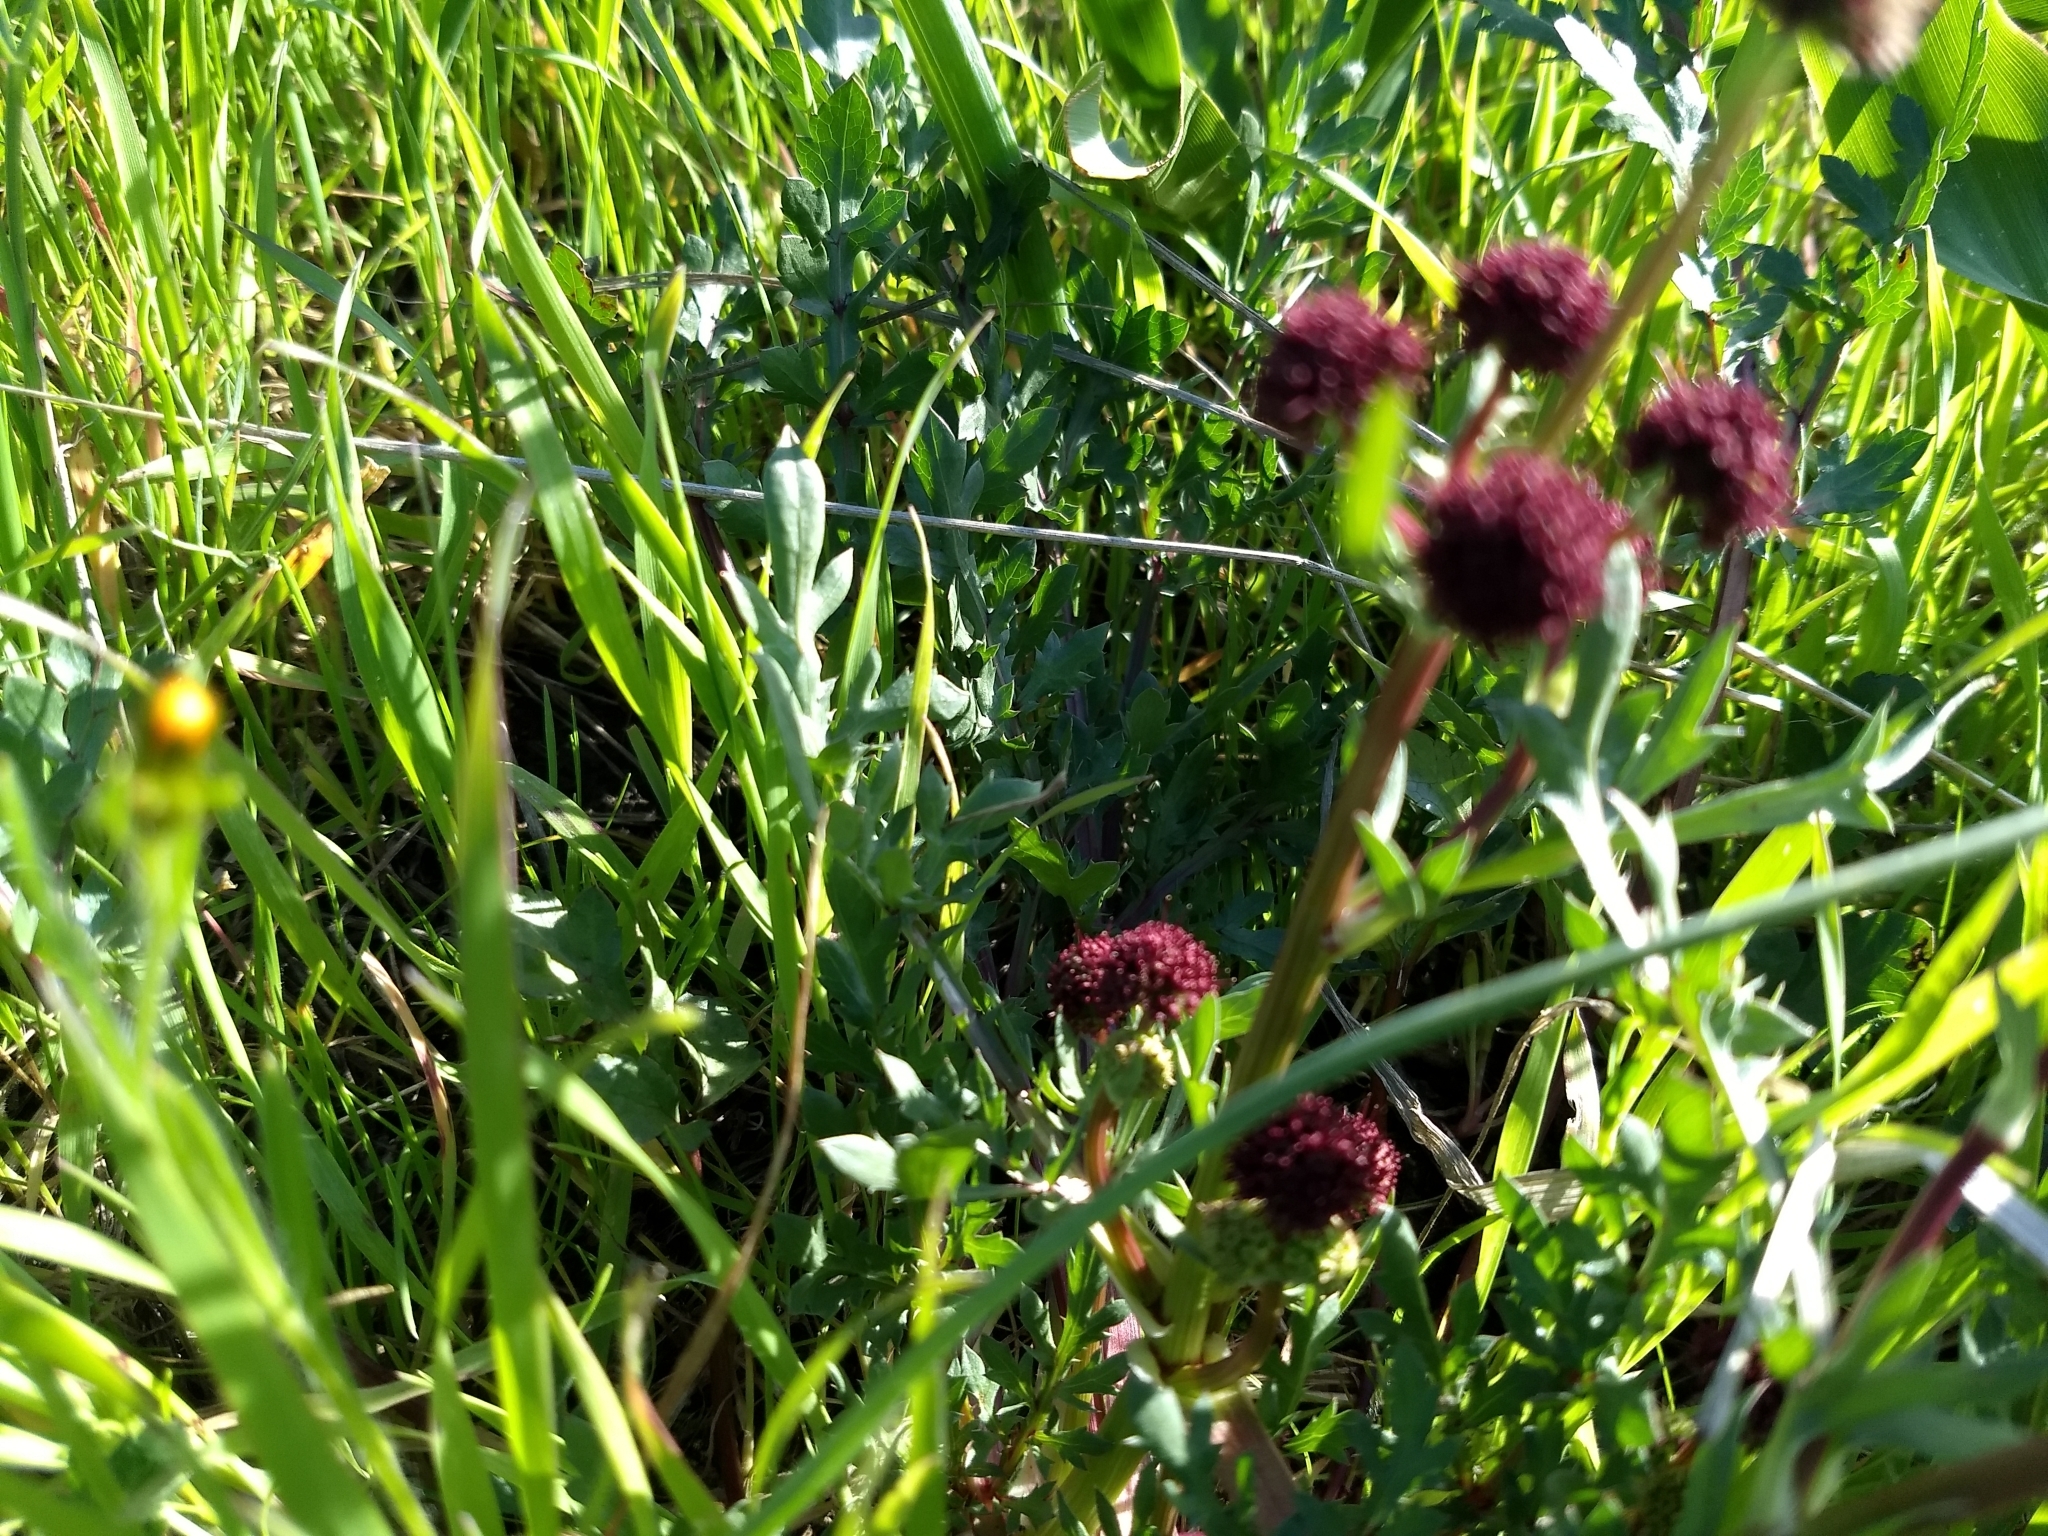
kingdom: Plantae
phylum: Tracheophyta
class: Magnoliopsida
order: Apiales
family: Apiaceae
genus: Sanicula
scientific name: Sanicula bipinnatifida
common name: Shoe-buttons
